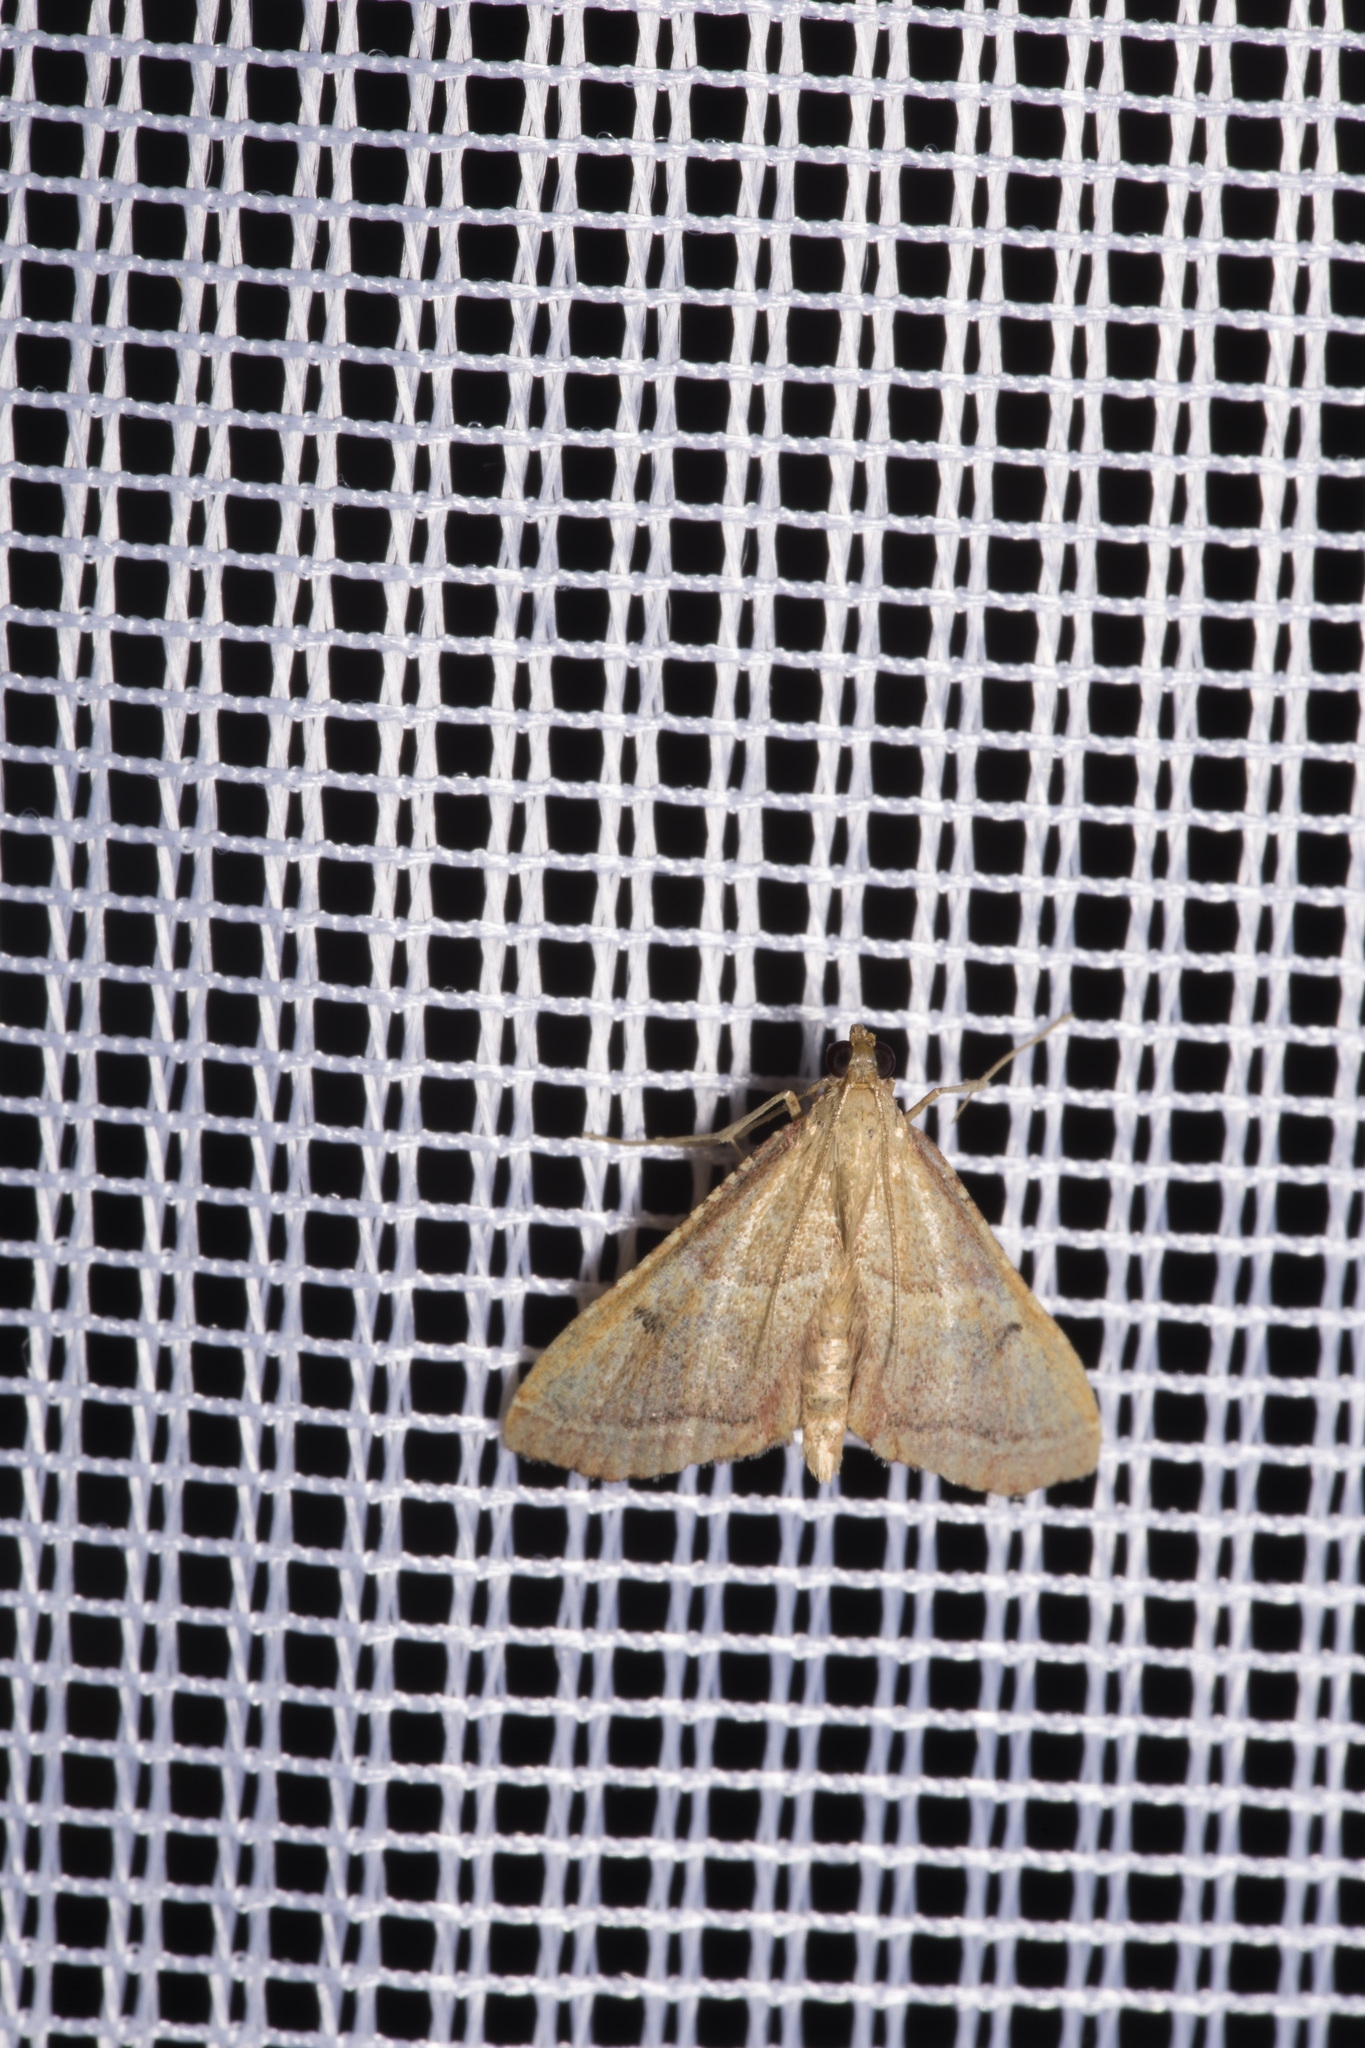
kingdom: Animalia
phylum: Arthropoda
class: Insecta
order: Lepidoptera
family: Pyralidae
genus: Endotricha
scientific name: Endotricha flammealis
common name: Rosy tabby
